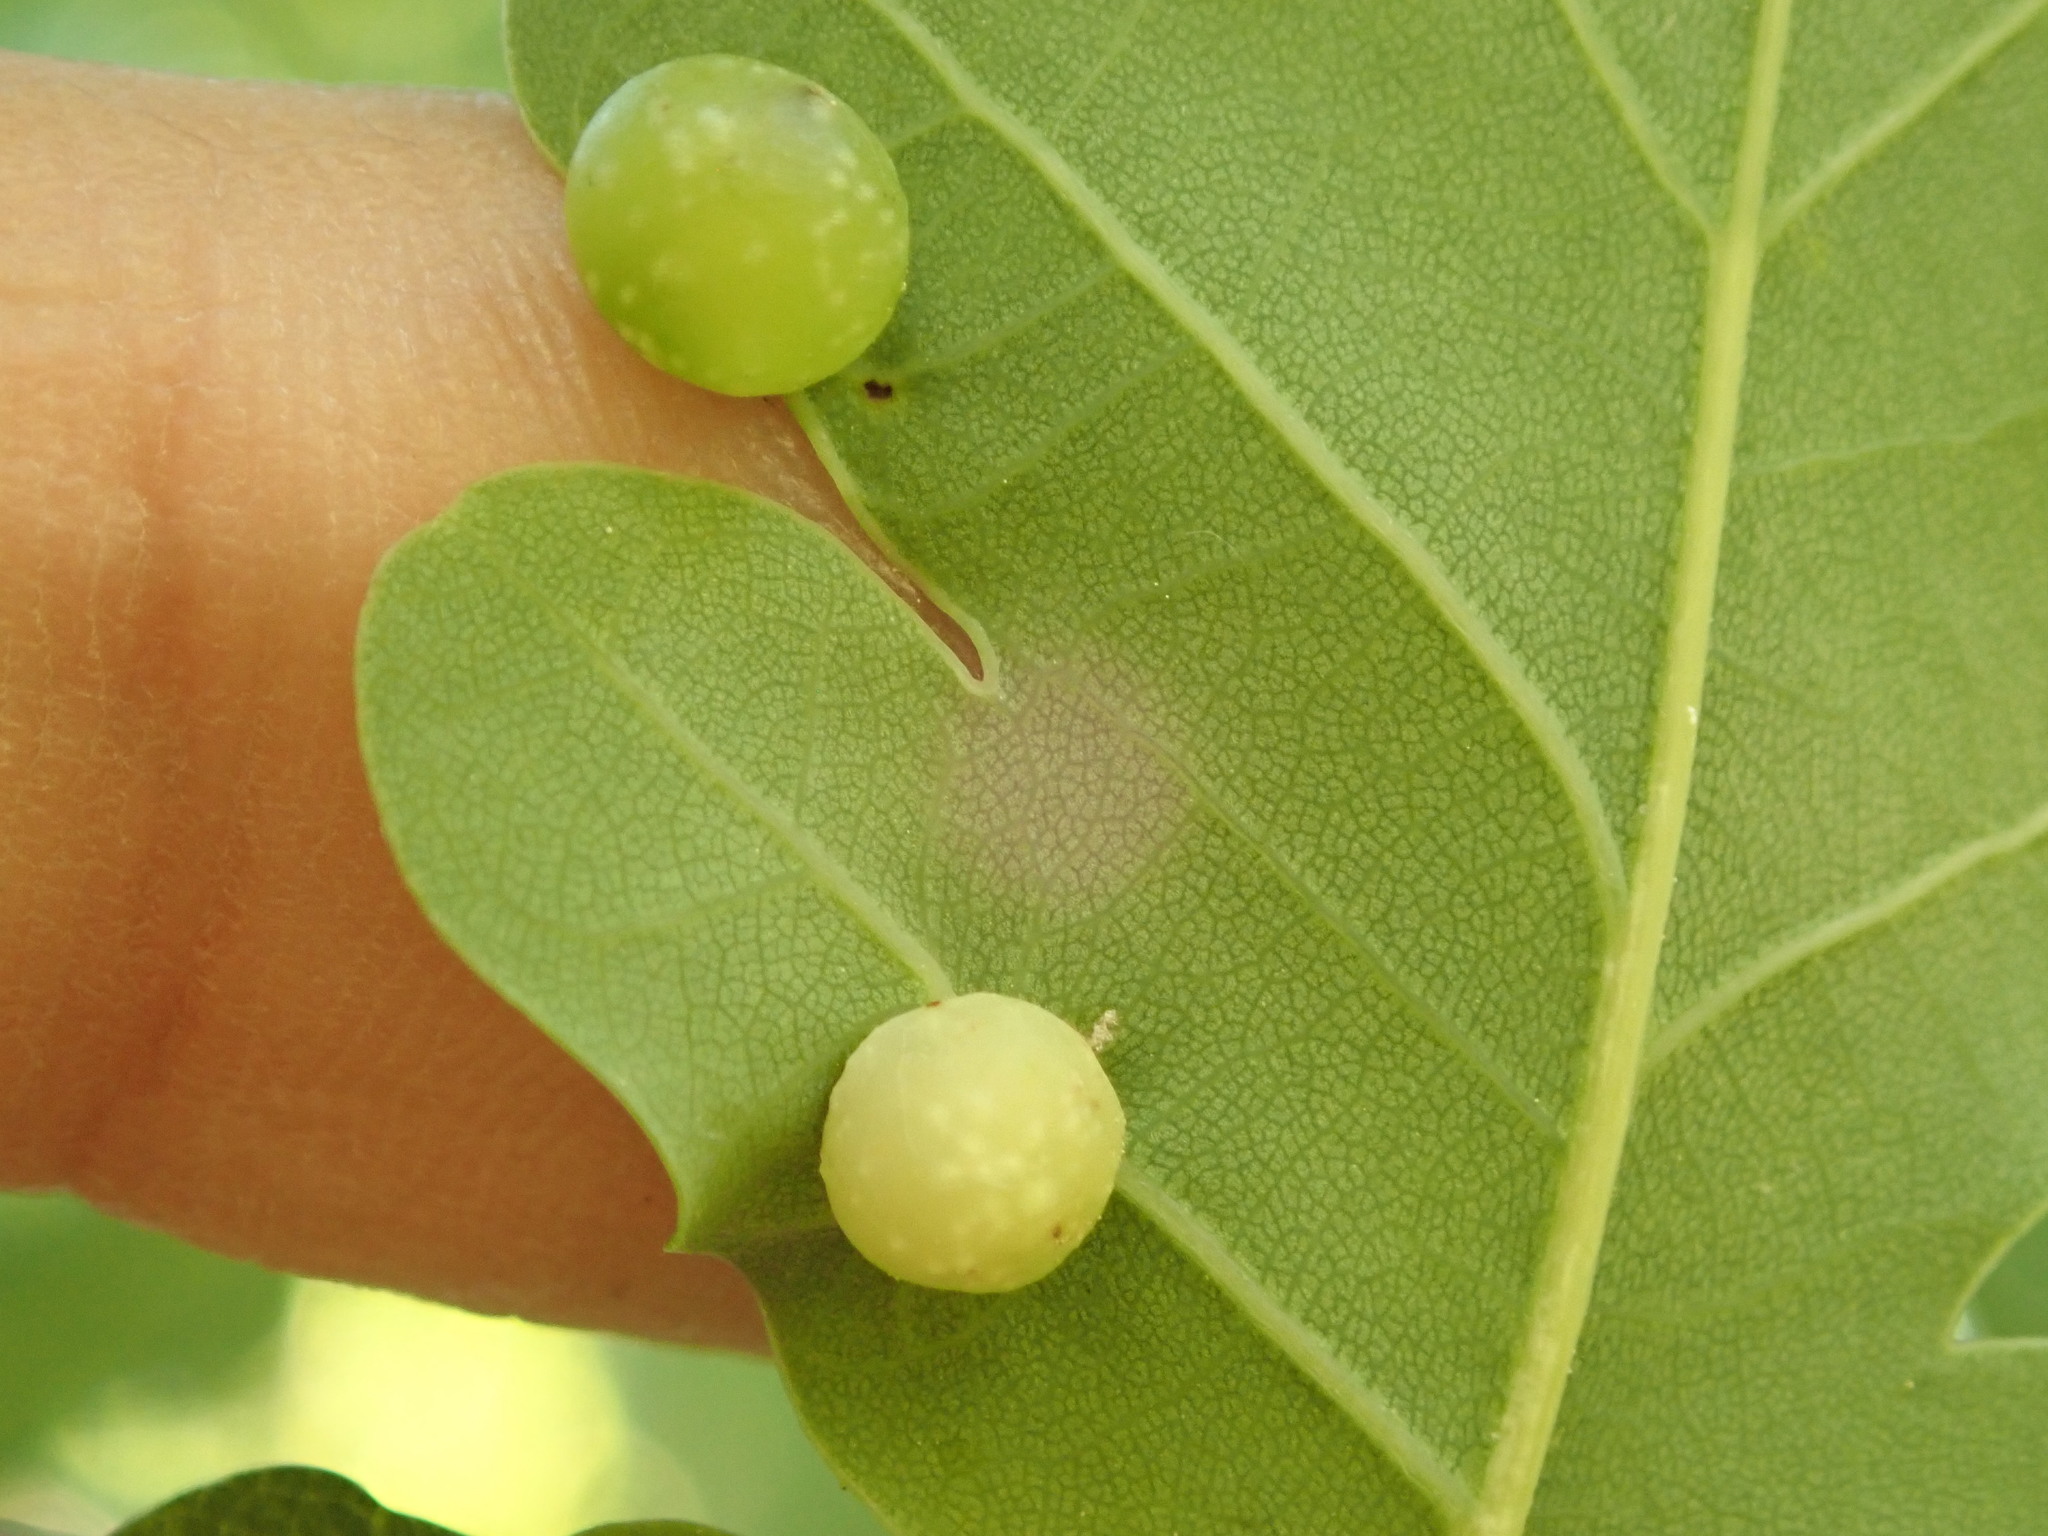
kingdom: Animalia
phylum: Arthropoda
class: Insecta
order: Hymenoptera
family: Cynipidae
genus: Neuroterus
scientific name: Neuroterus quercusbaccarum
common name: Common spangle gall
